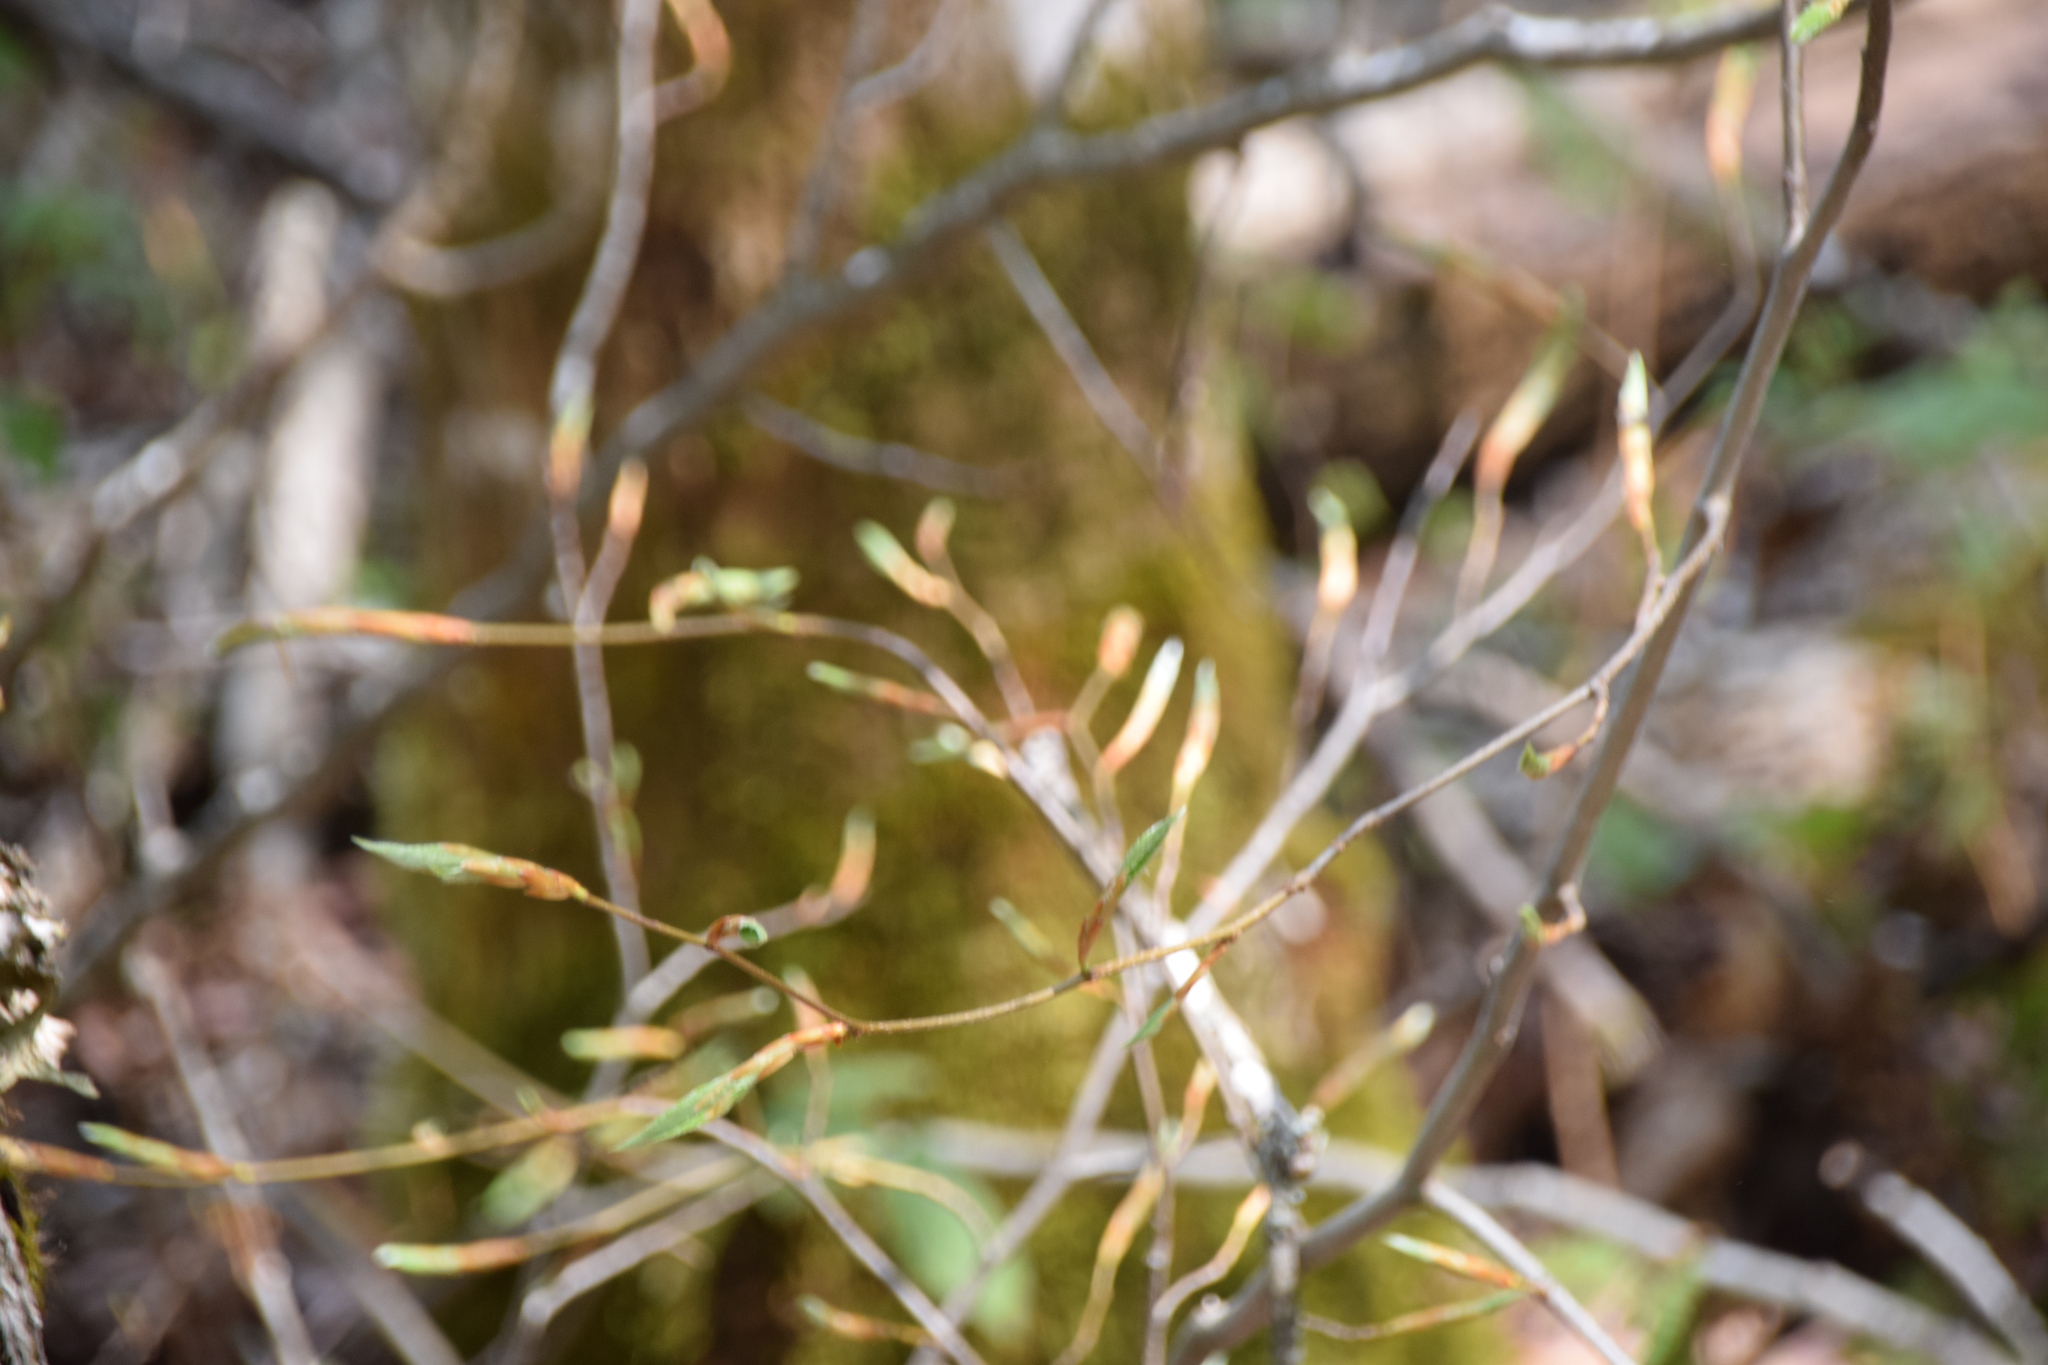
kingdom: Plantae
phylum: Tracheophyta
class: Magnoliopsida
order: Fagales
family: Fagaceae
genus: Fagus
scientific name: Fagus grandifolia
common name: American beech
